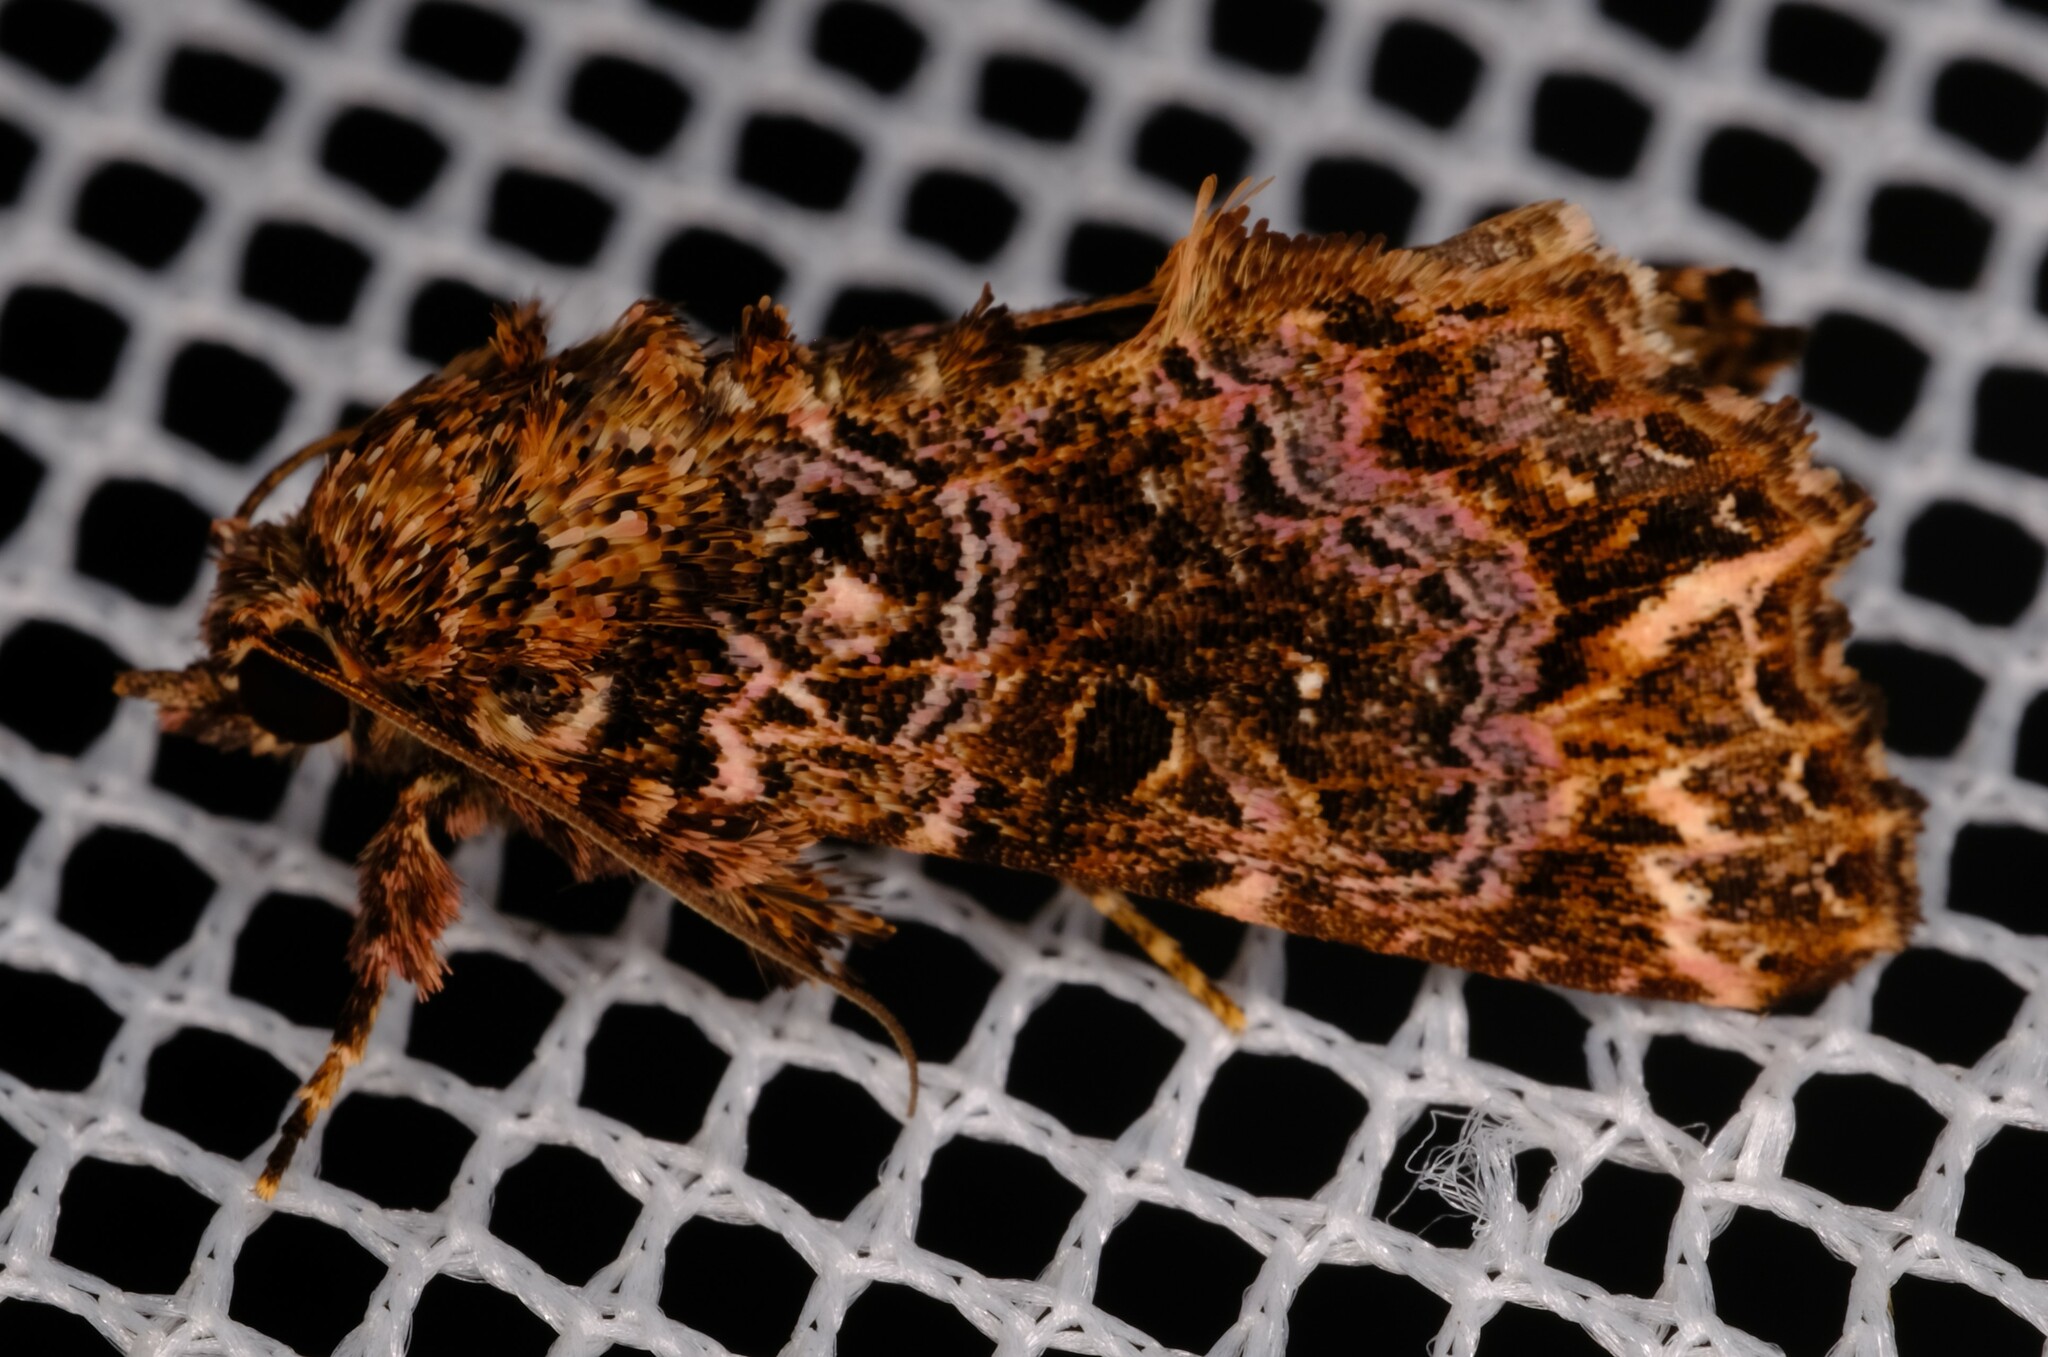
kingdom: Animalia
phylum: Arthropoda
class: Insecta
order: Lepidoptera
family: Noctuidae
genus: Callopistria
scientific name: Callopistria rivularis
